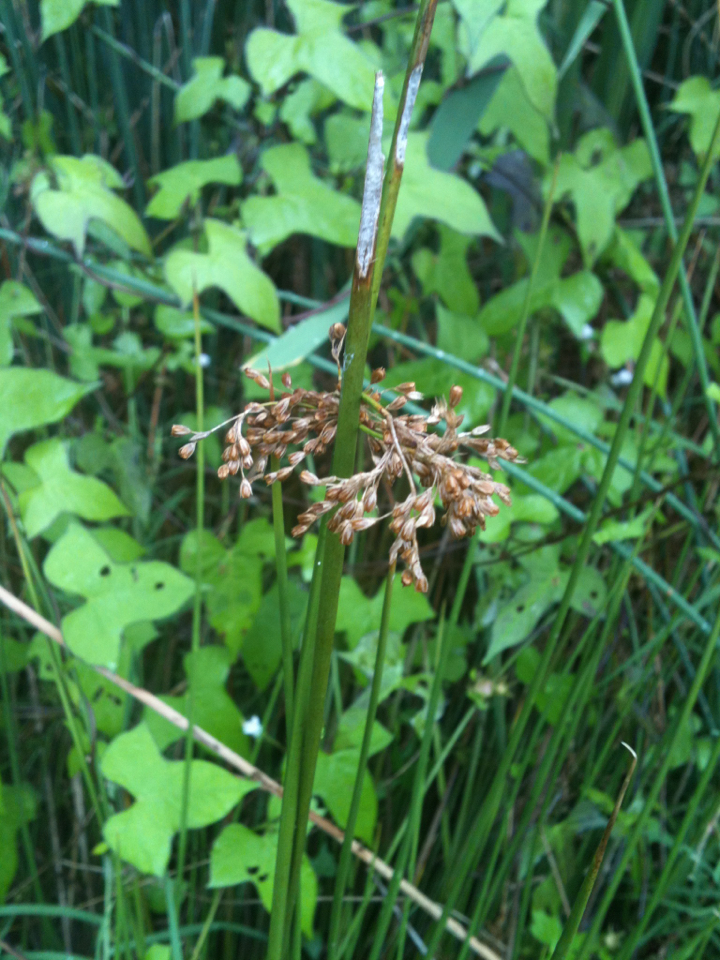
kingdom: Plantae
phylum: Tracheophyta
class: Liliopsida
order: Poales
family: Juncaceae
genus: Juncus
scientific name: Juncus effusus
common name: Soft rush
